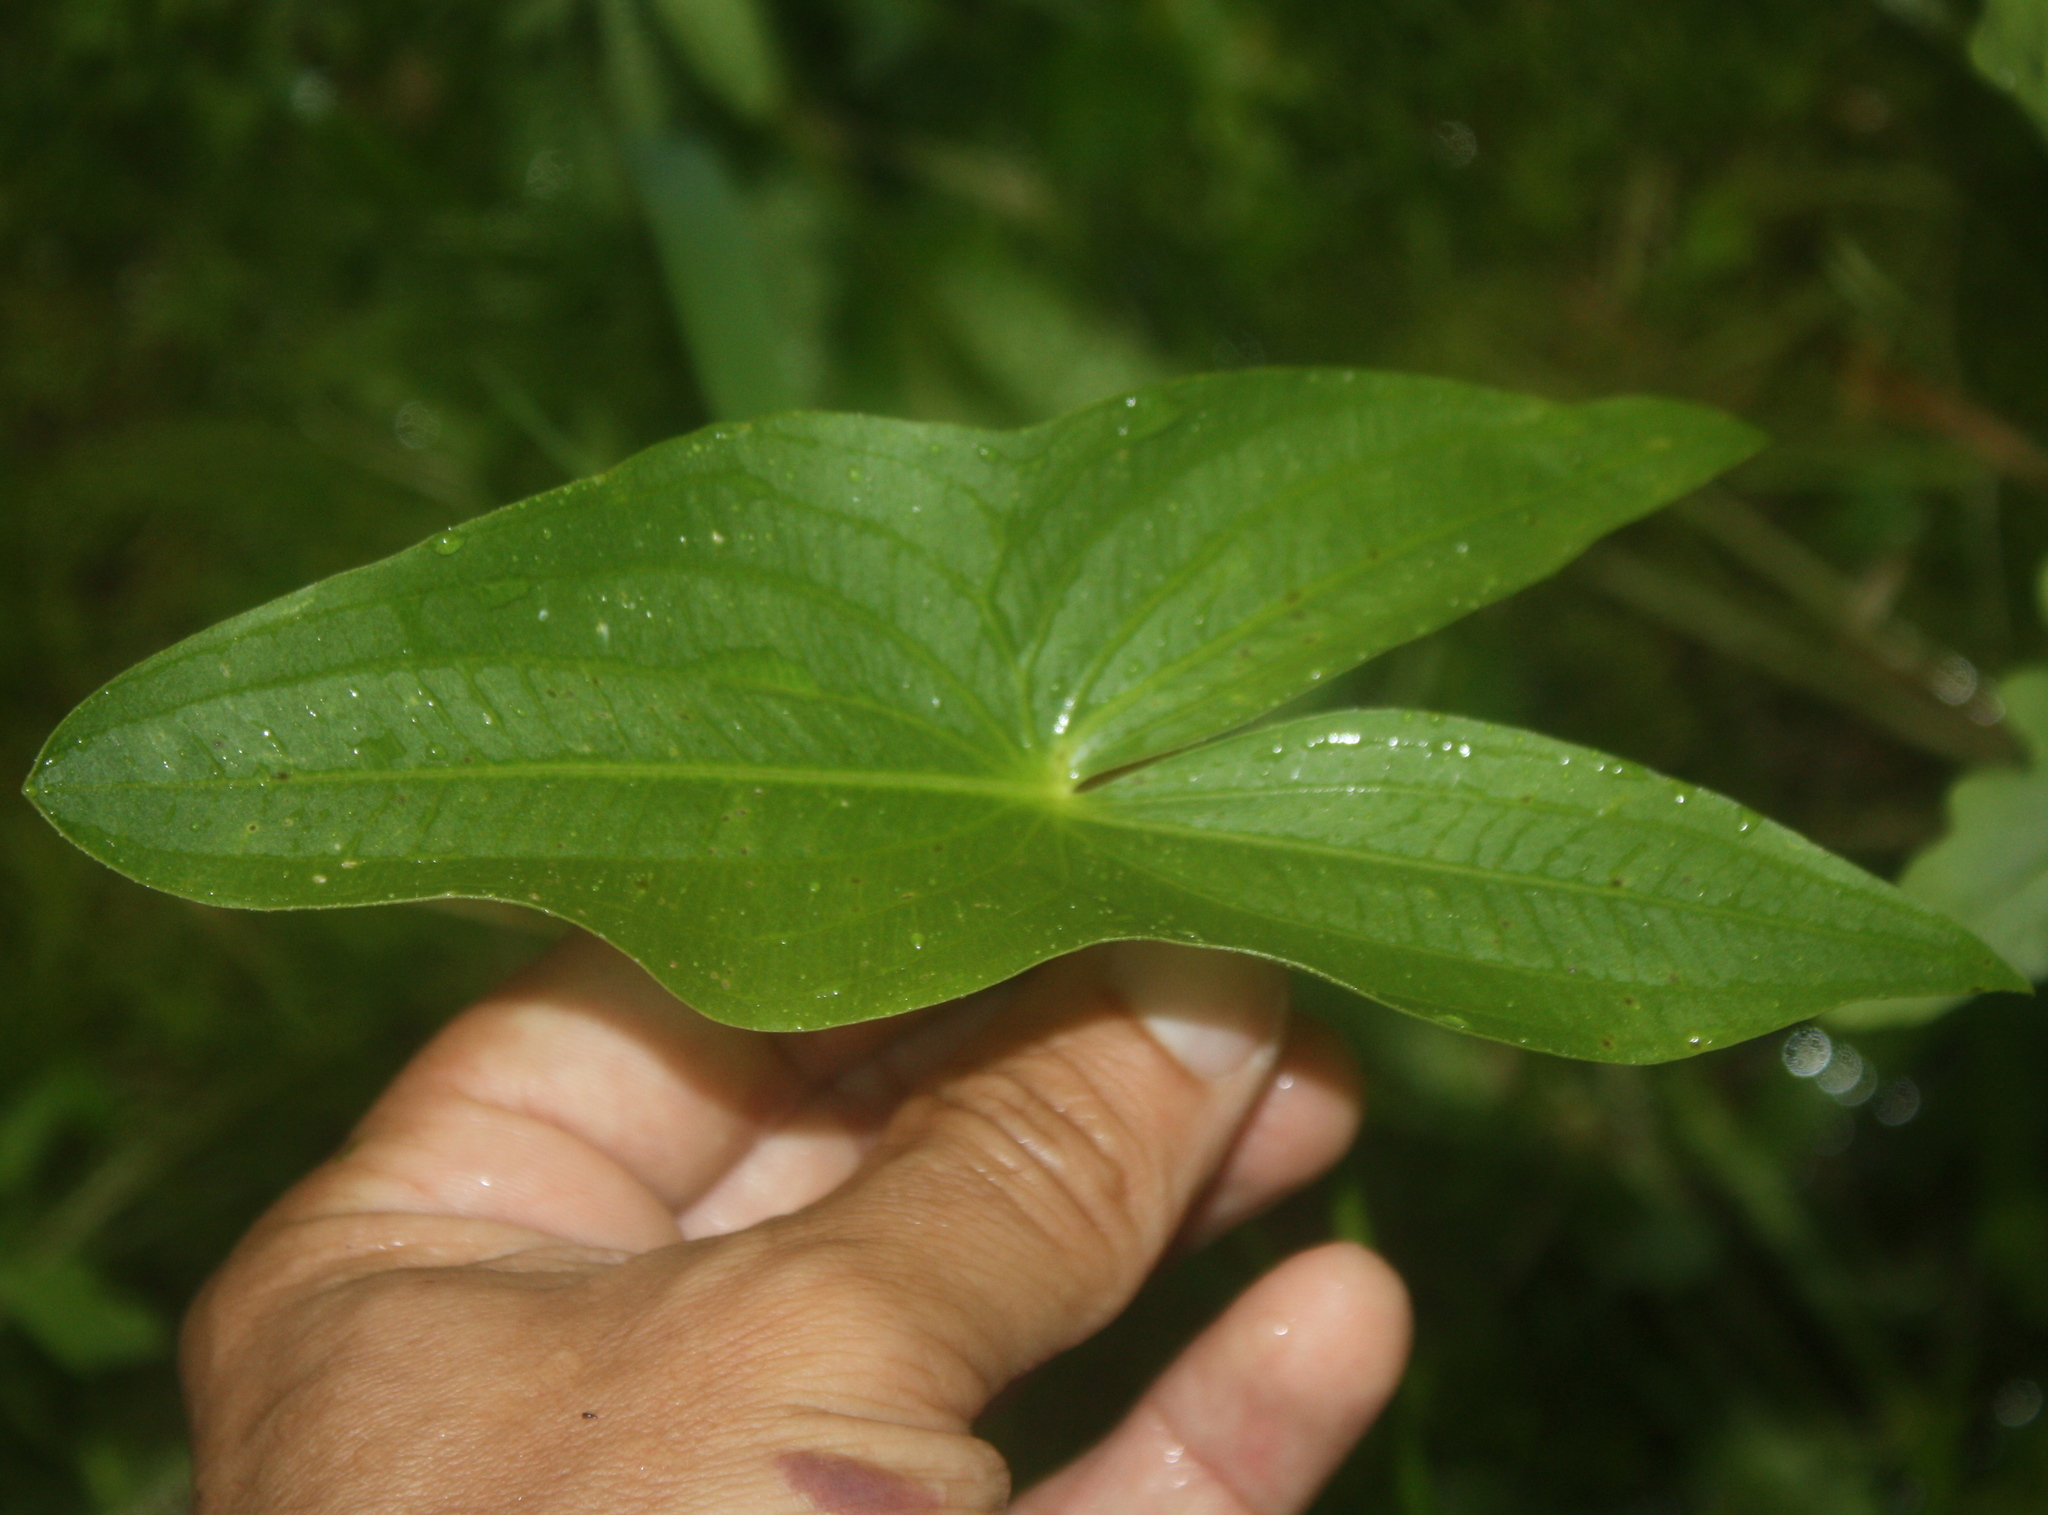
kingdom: Plantae
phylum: Tracheophyta
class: Liliopsida
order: Alismatales
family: Alismataceae
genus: Sagittaria
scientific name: Sagittaria latifolia
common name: Duck-potato
